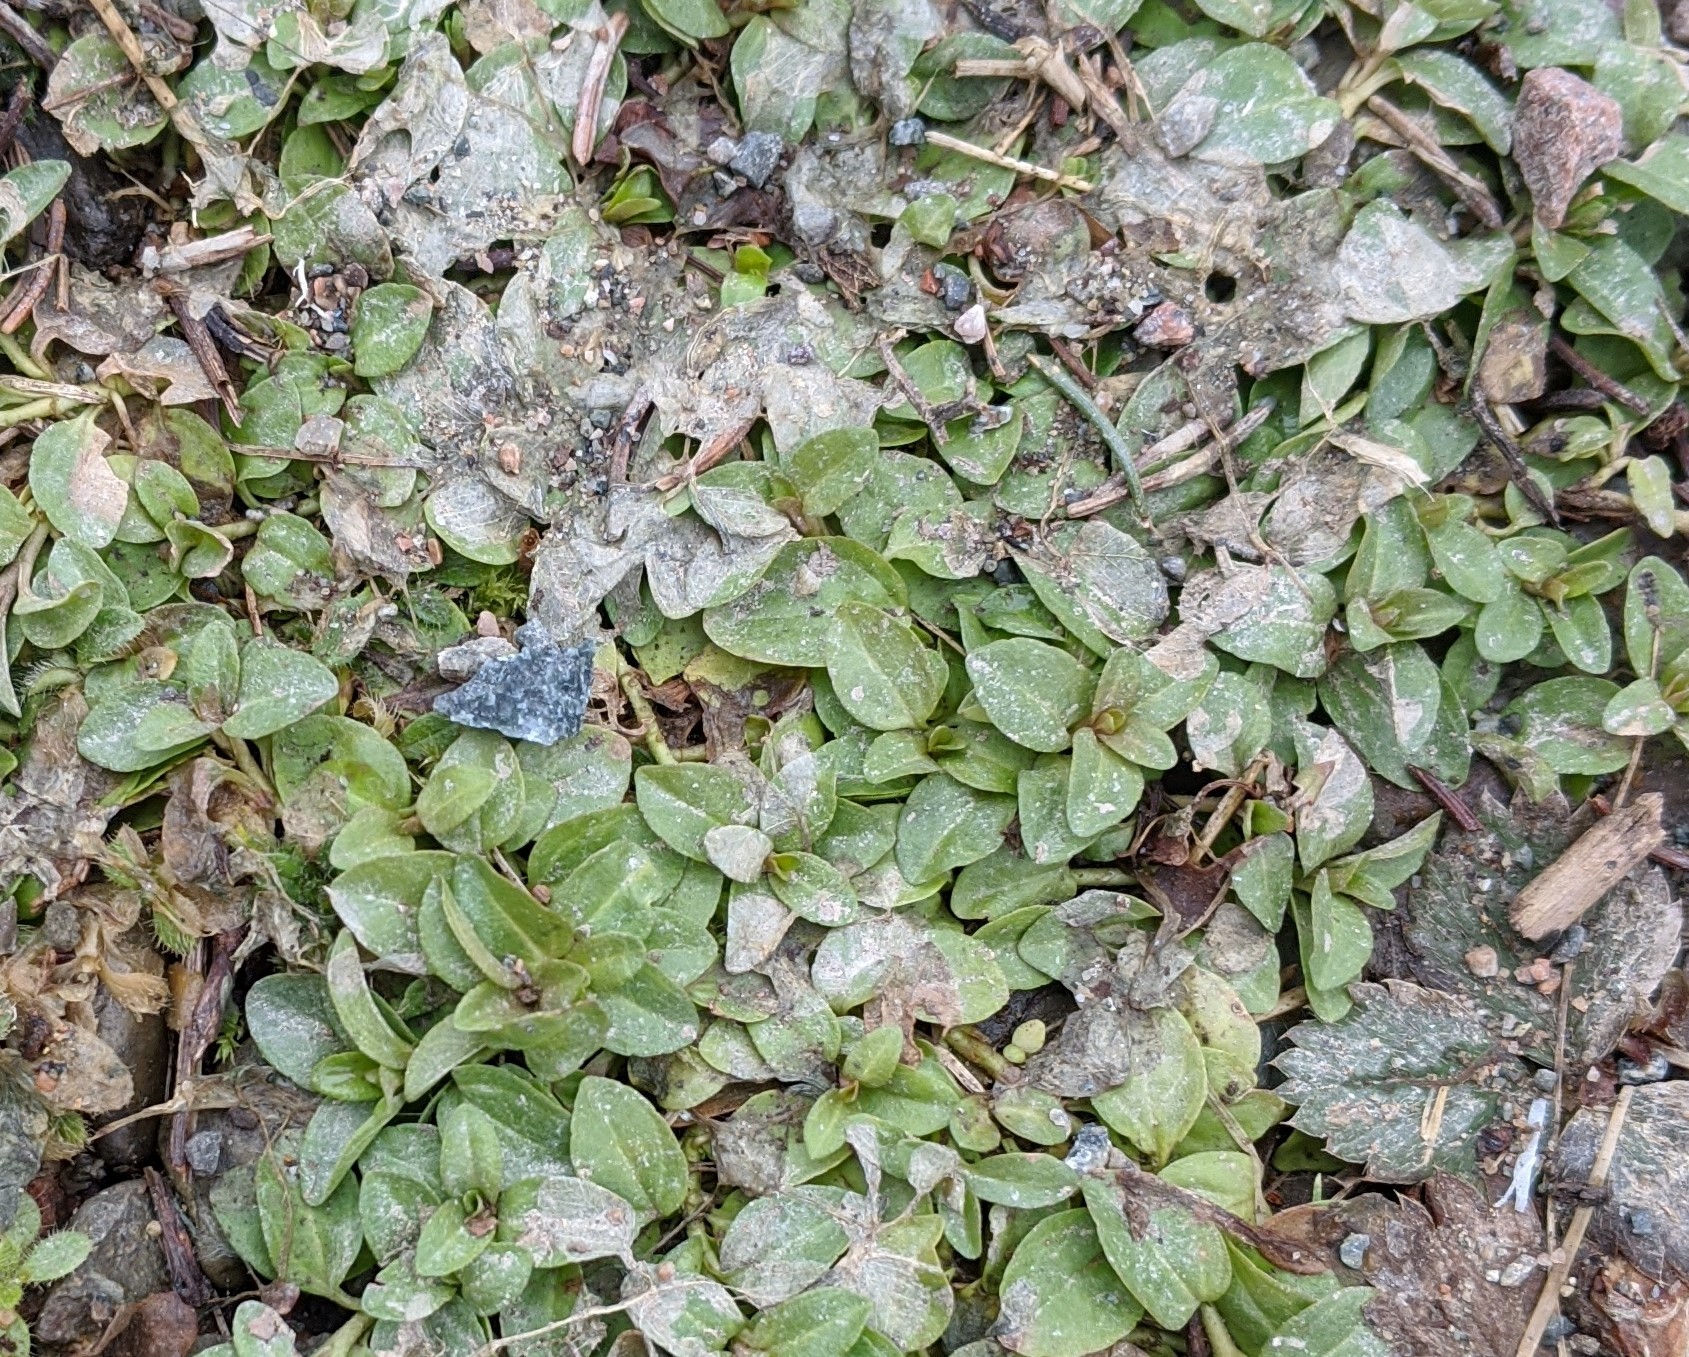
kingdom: Plantae
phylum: Tracheophyta
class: Magnoliopsida
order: Lamiales
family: Plantaginaceae
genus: Veronica
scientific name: Veronica serpyllifolia
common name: Thyme-leaved speedwell
